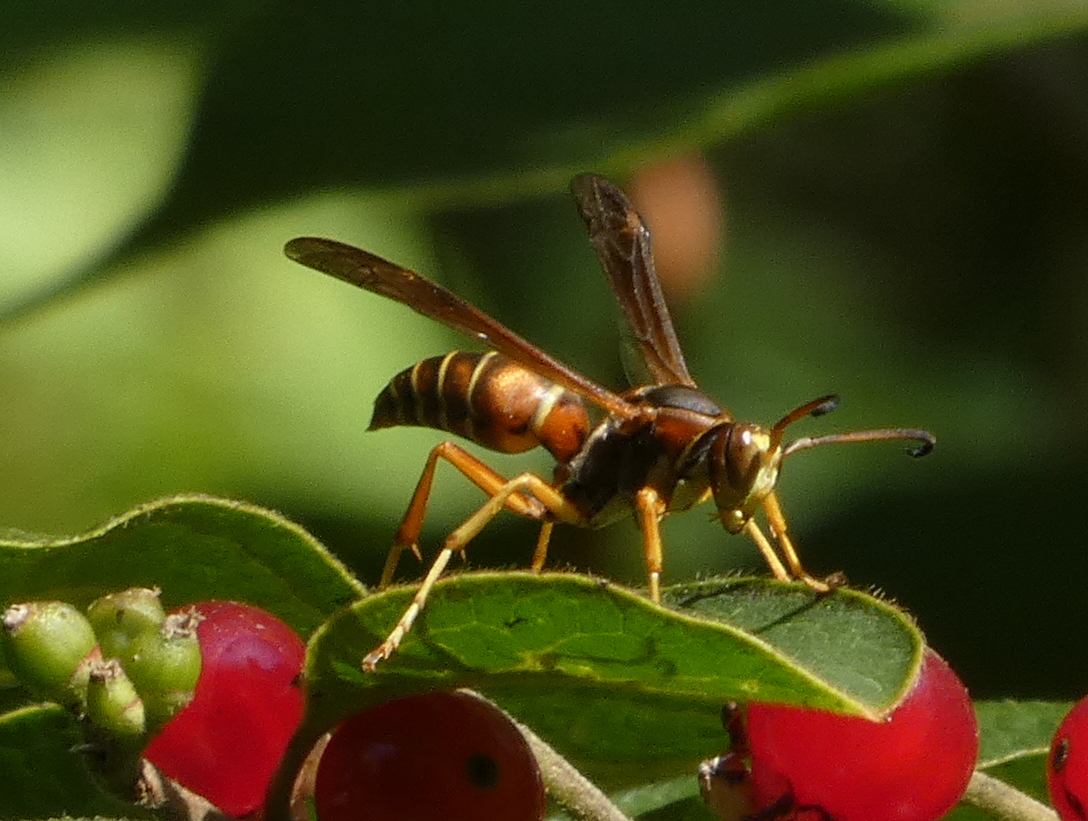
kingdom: Animalia
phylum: Arthropoda
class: Insecta
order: Hymenoptera
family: Eumenidae
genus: Polistes
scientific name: Polistes fuscatus
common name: Dark paper wasp
